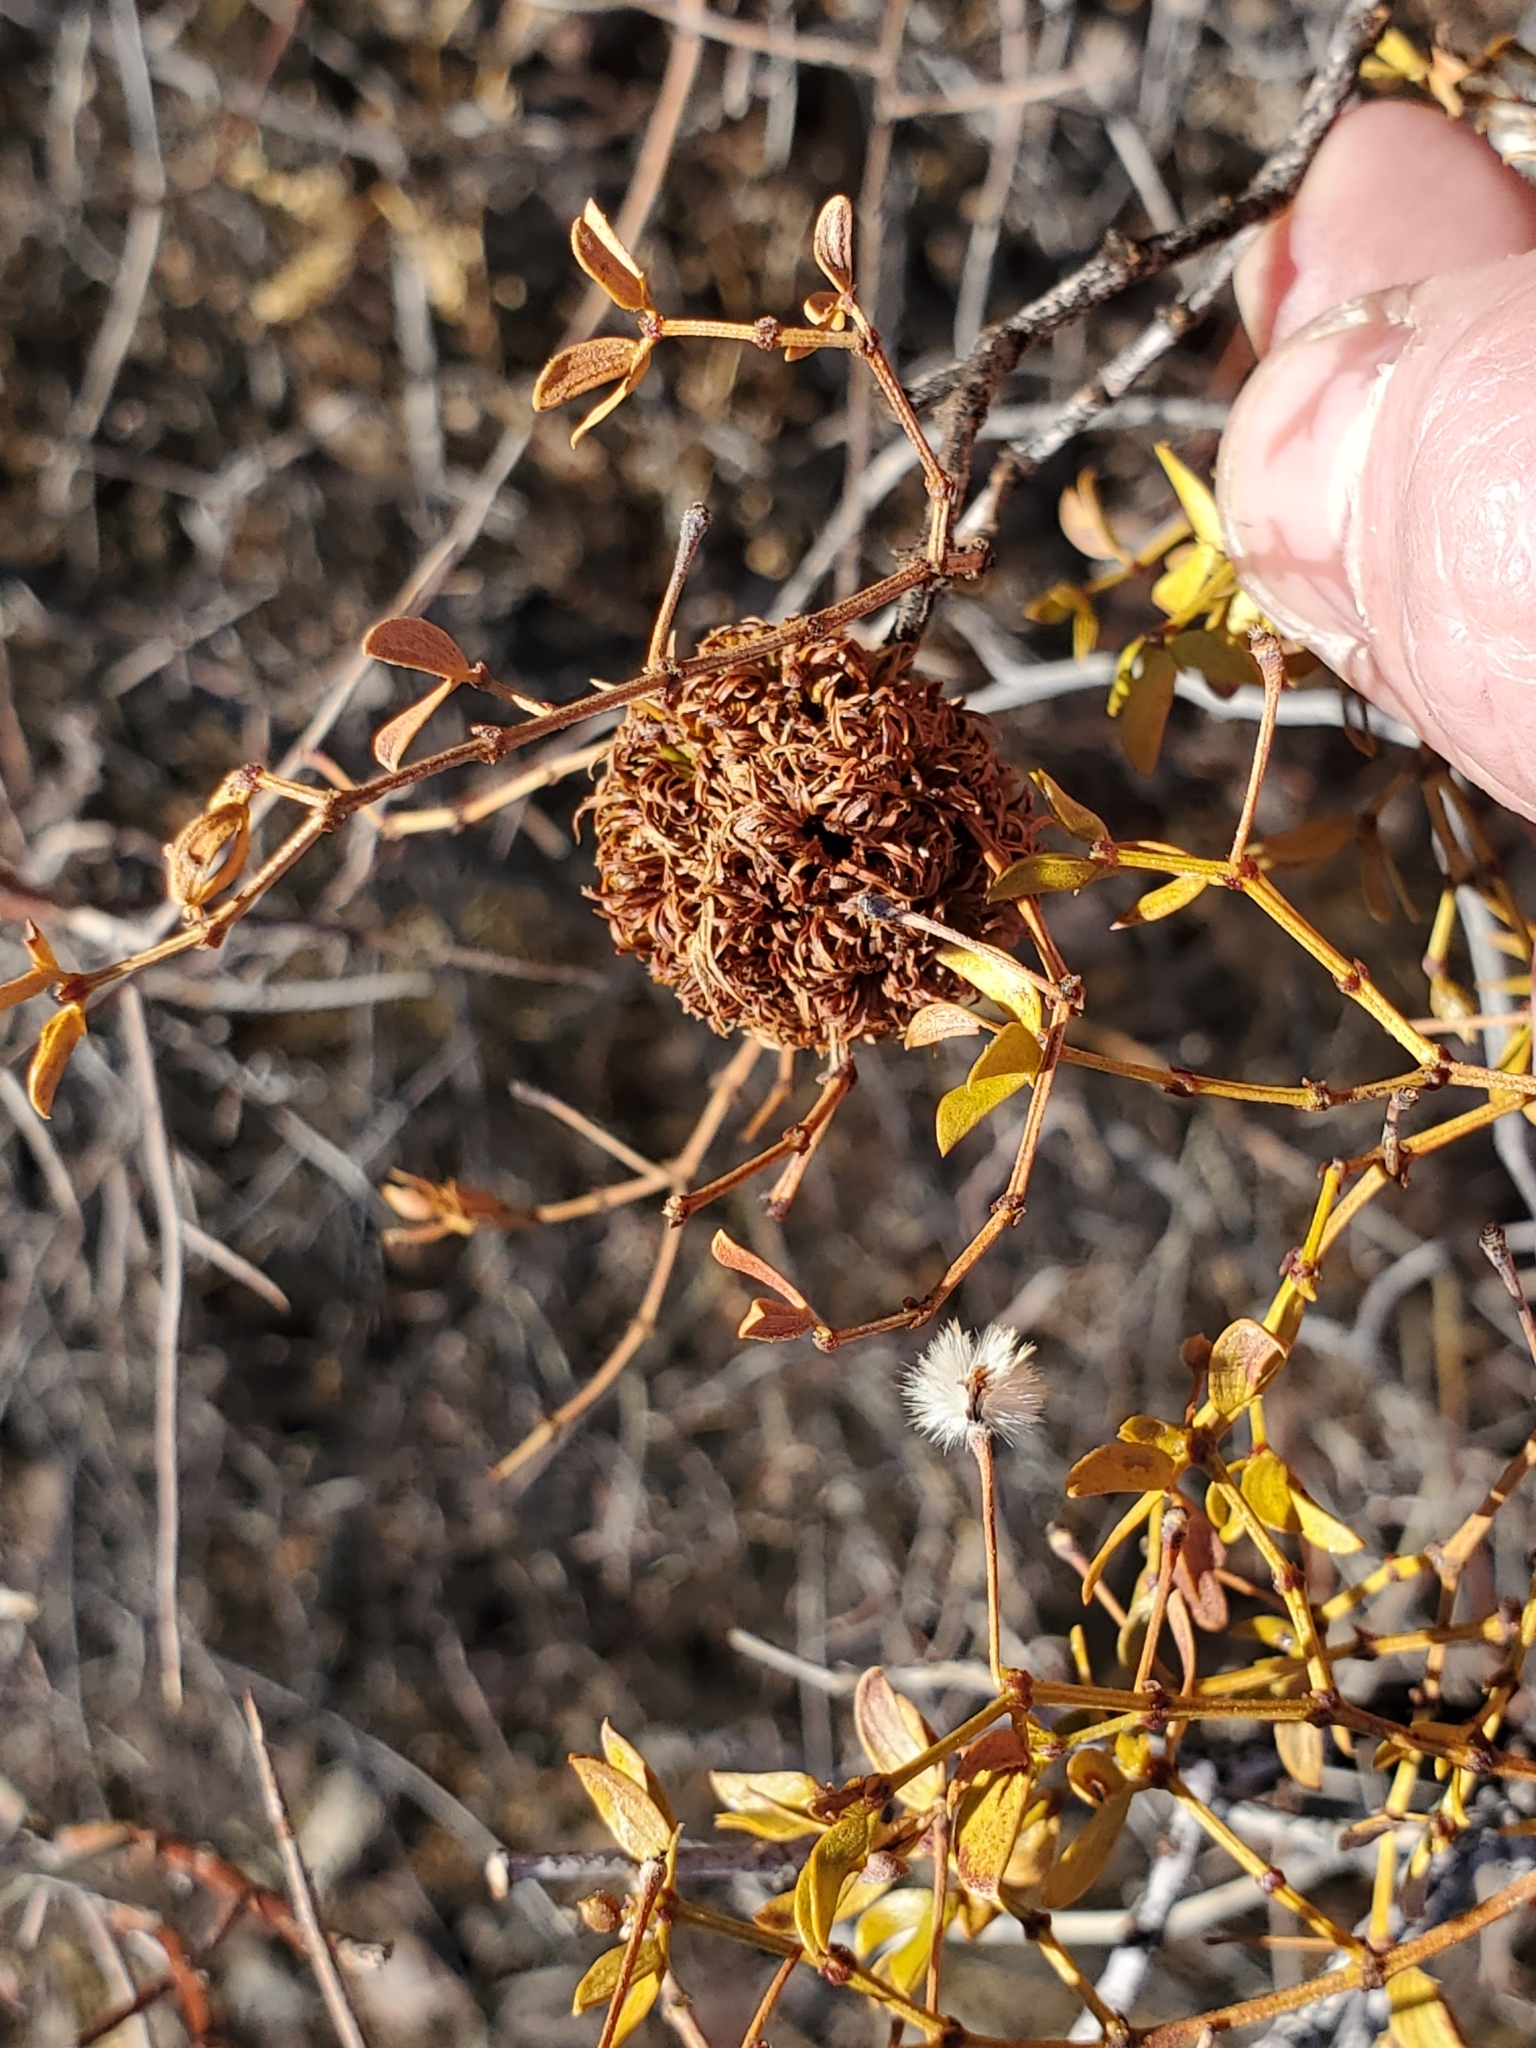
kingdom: Animalia
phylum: Arthropoda
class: Insecta
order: Diptera
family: Cecidomyiidae
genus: Asphondylia
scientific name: Asphondylia auripila
